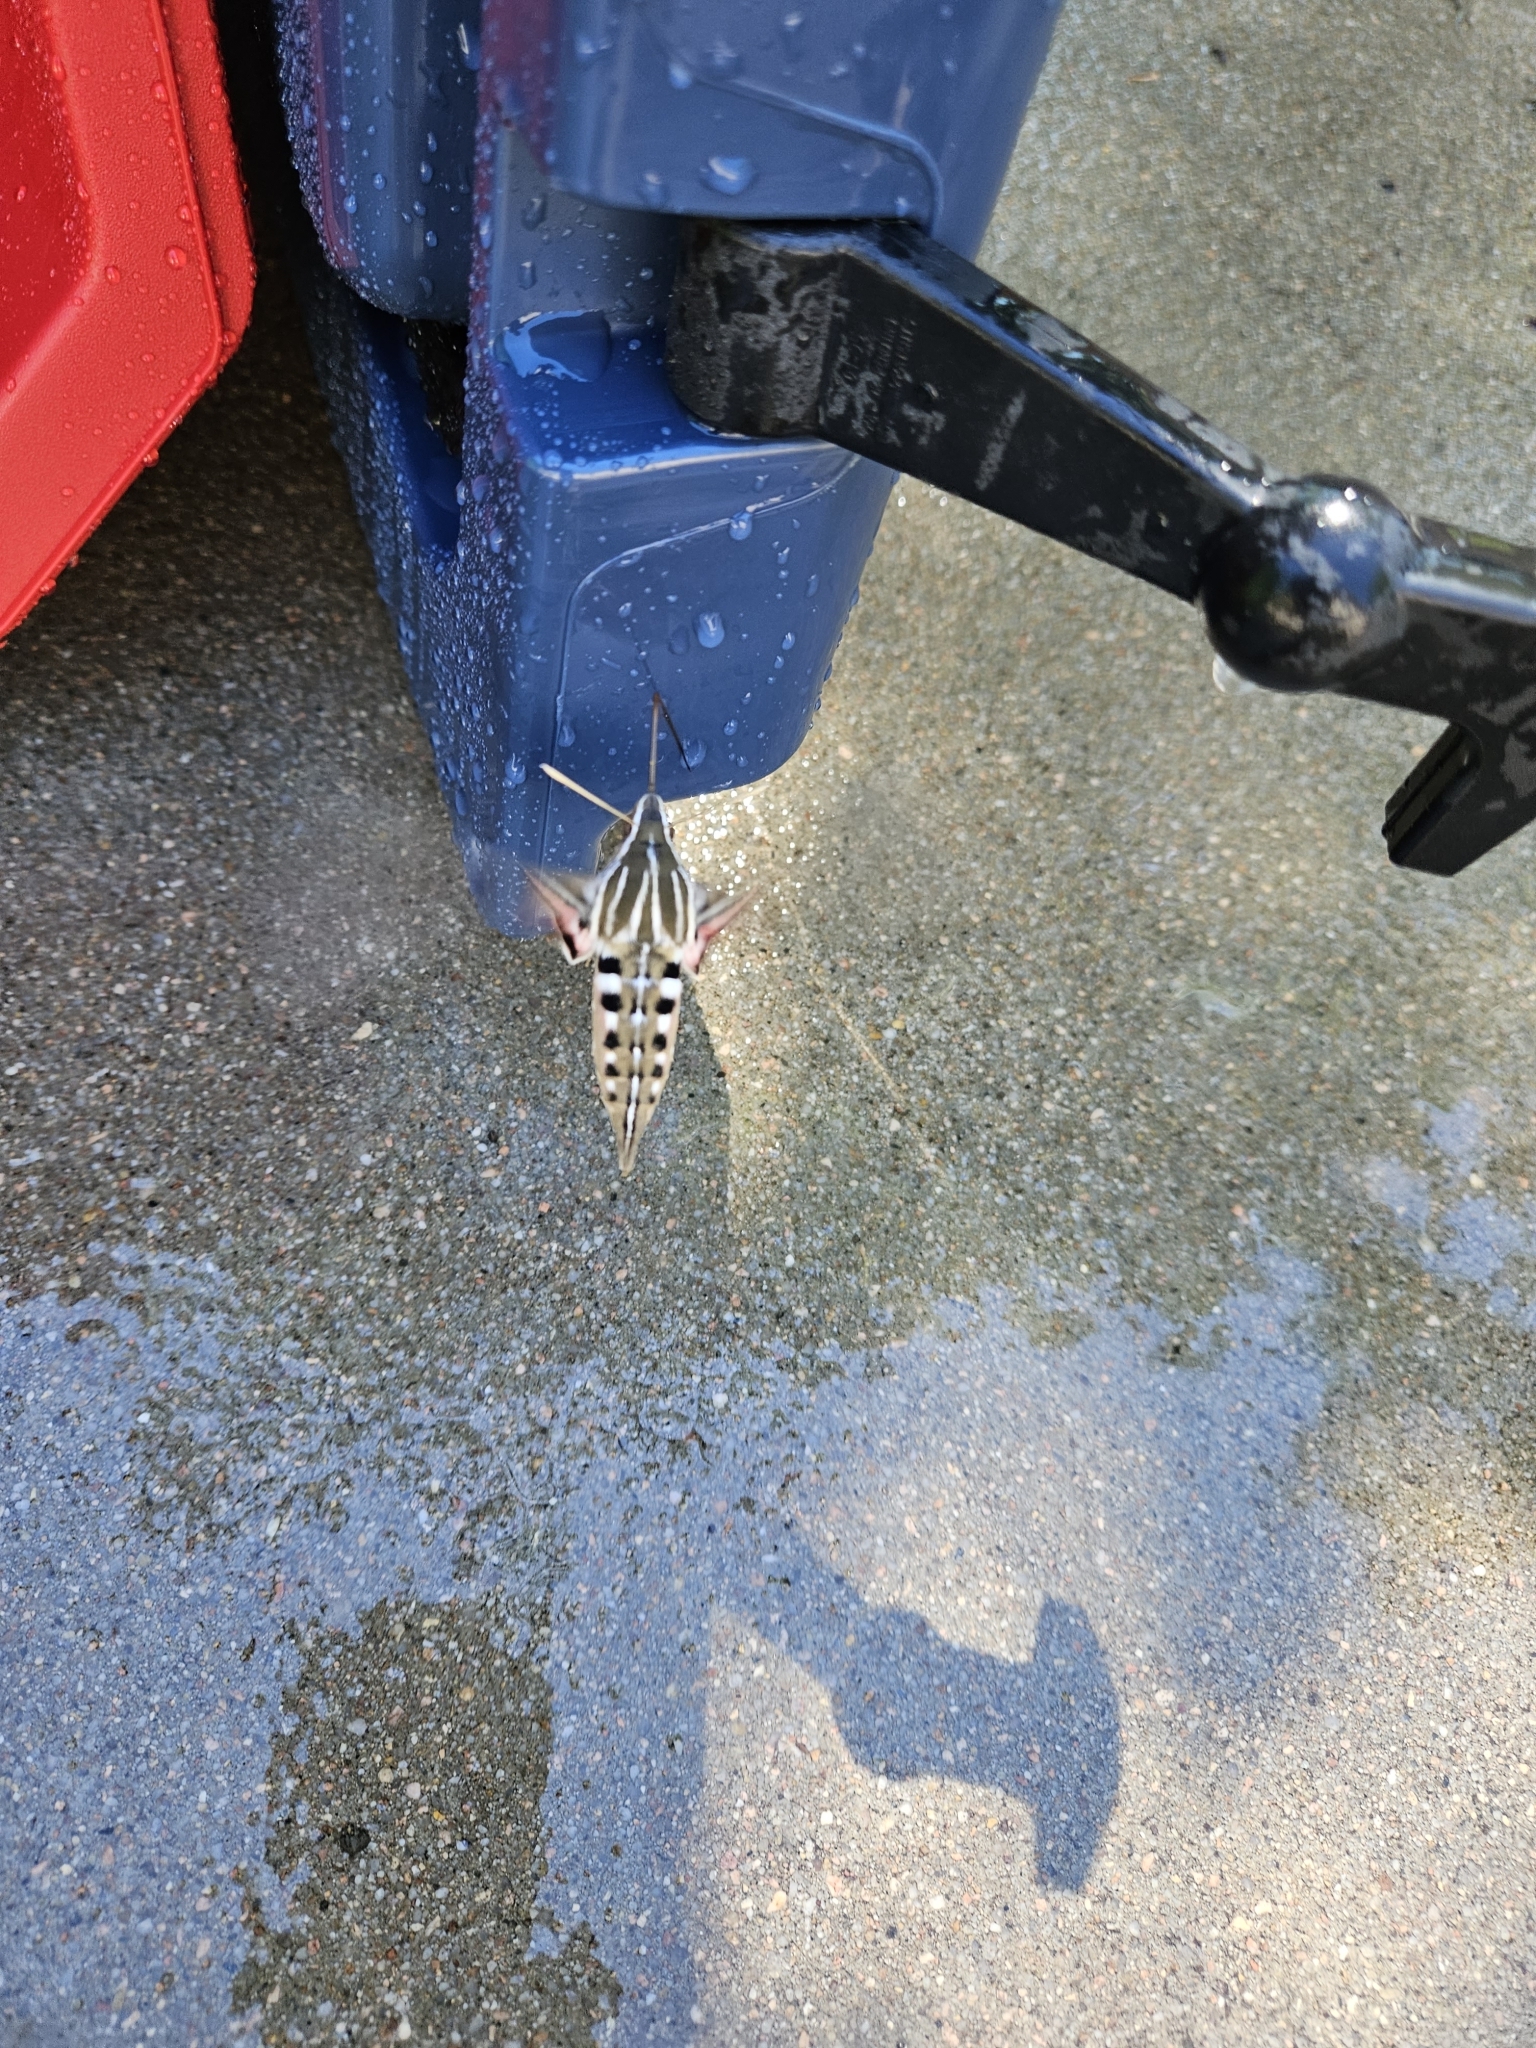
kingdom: Animalia
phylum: Arthropoda
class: Insecta
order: Lepidoptera
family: Sphingidae
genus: Hyles
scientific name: Hyles lineata
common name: White-lined sphinx
